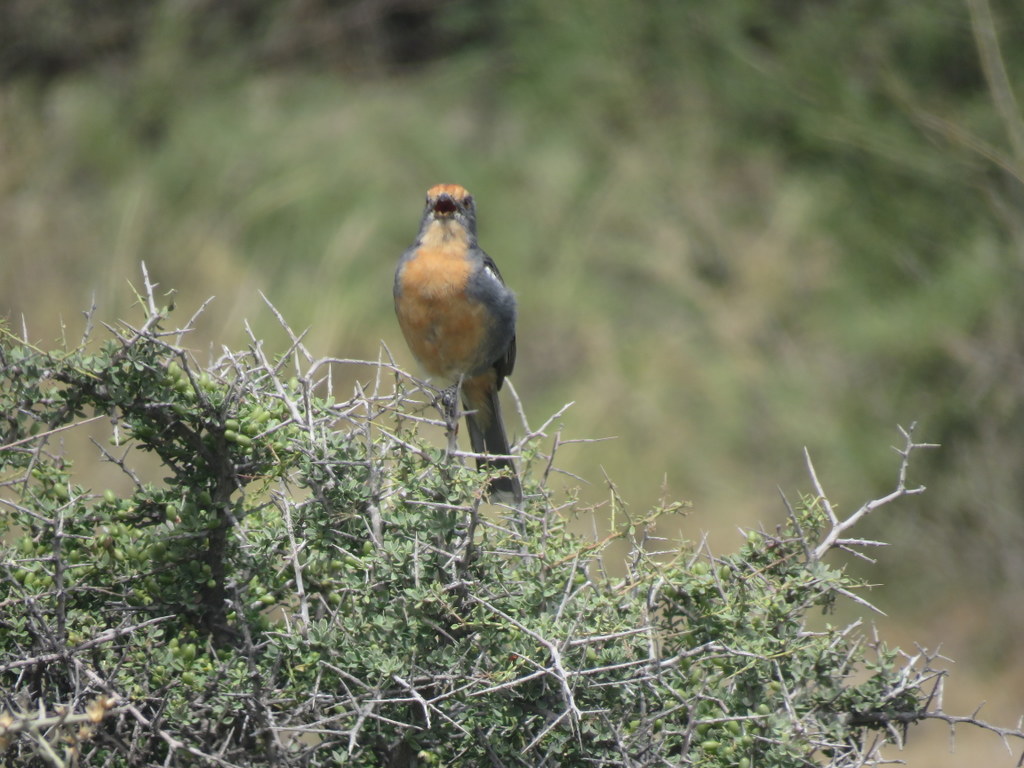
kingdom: Animalia
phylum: Chordata
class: Aves
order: Passeriformes
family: Cotingidae
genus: Phytotoma
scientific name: Phytotoma rutila
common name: White-tipped plantcutter
